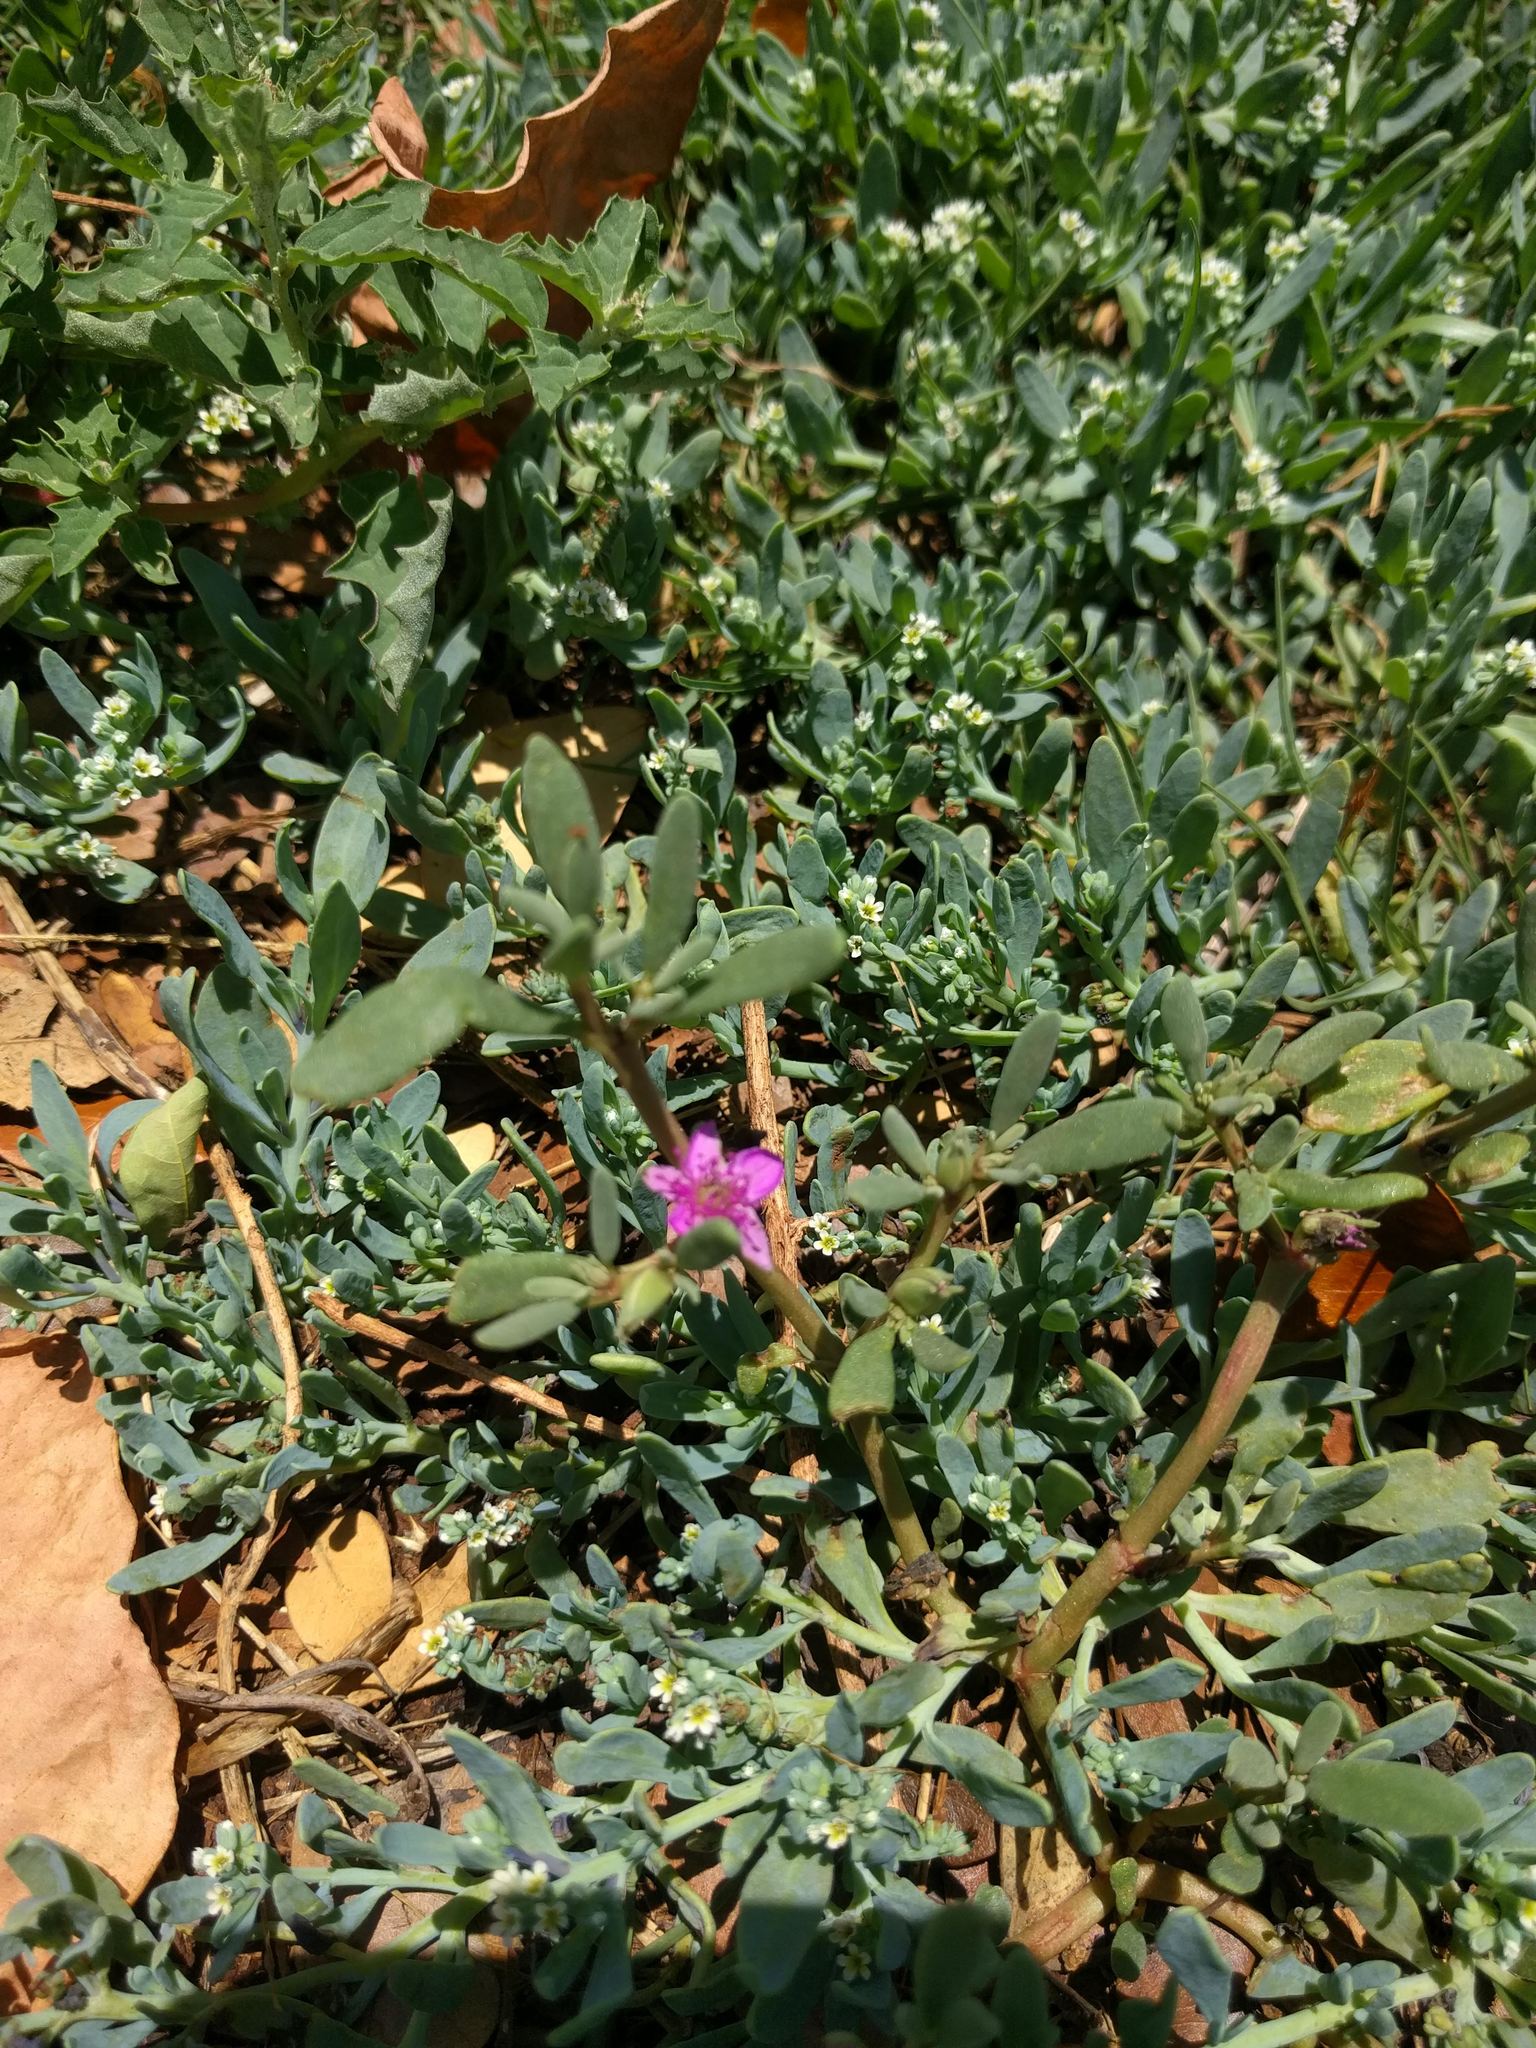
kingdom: Plantae
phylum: Tracheophyta
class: Magnoliopsida
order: Boraginales
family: Heliotropiaceae
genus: Heliotropium
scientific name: Heliotropium curassavicum
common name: Seaside heliotrope
